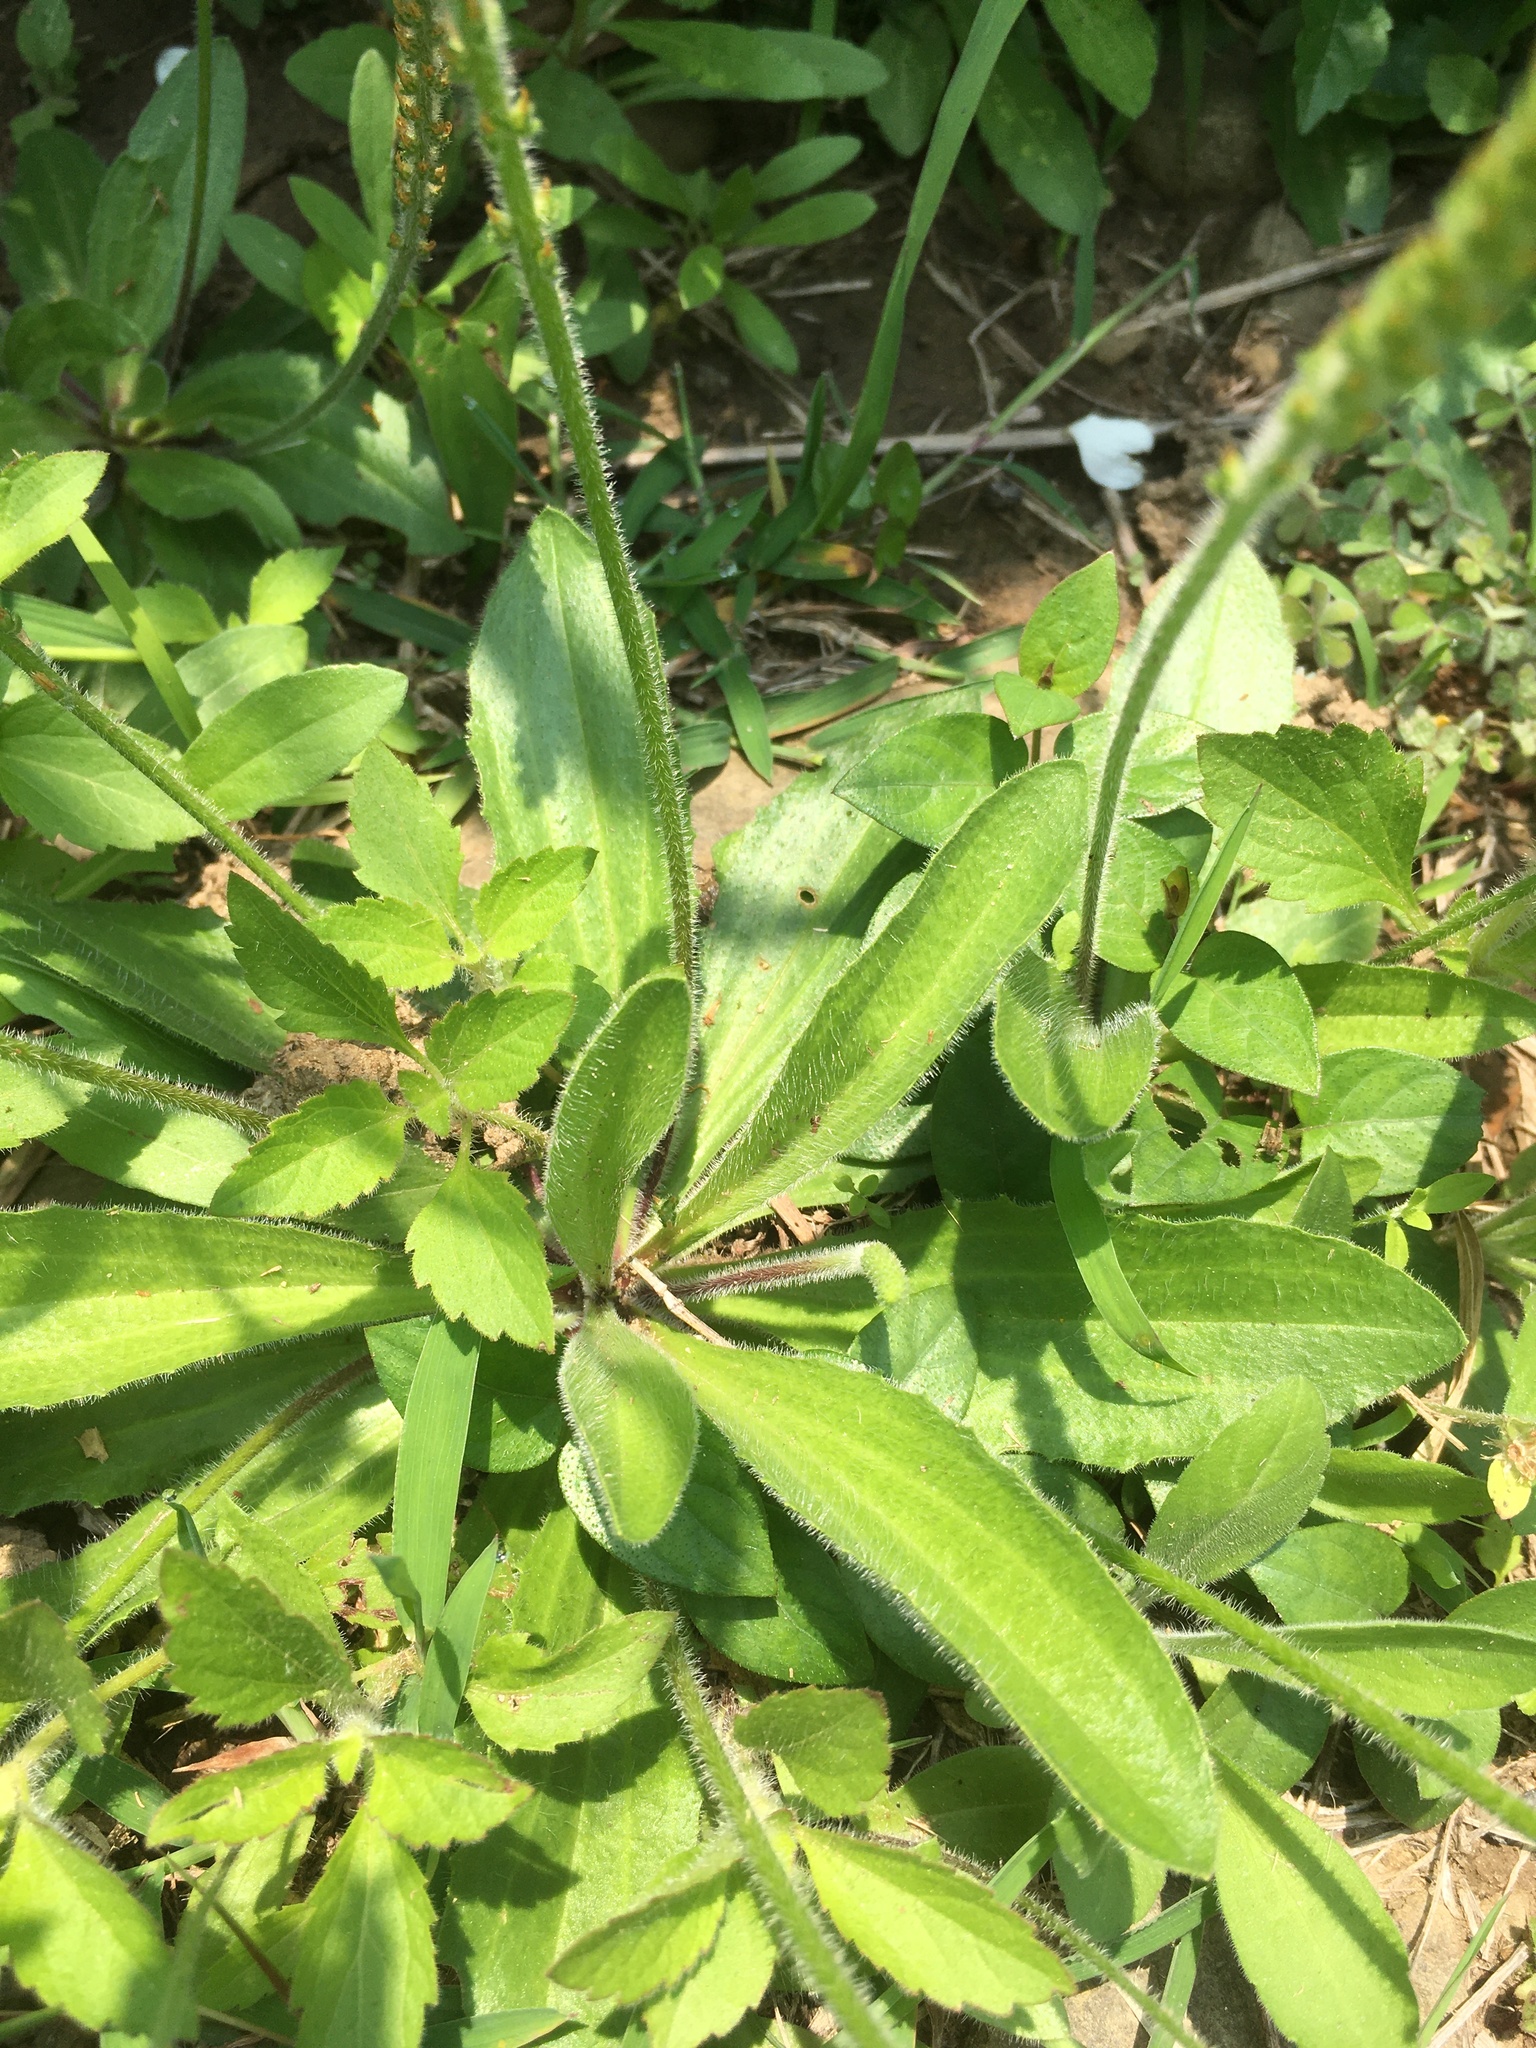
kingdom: Plantae
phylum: Tracheophyta
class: Magnoliopsida
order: Lamiales
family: Plantaginaceae
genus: Plantago
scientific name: Plantago virginica
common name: Hoary plantain
